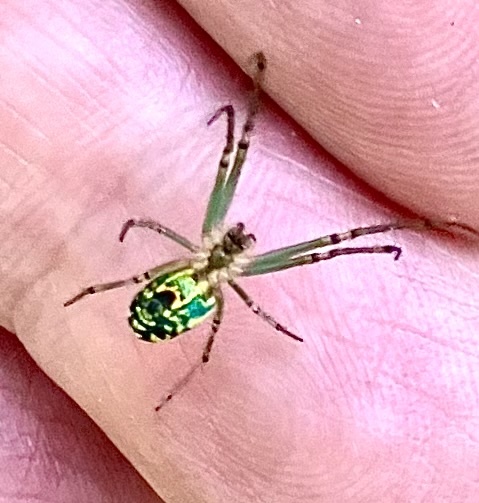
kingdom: Animalia
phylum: Arthropoda
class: Arachnida
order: Araneae
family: Tetragnathidae
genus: Leucauge
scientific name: Leucauge venusta
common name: Longjawed orb weavers
